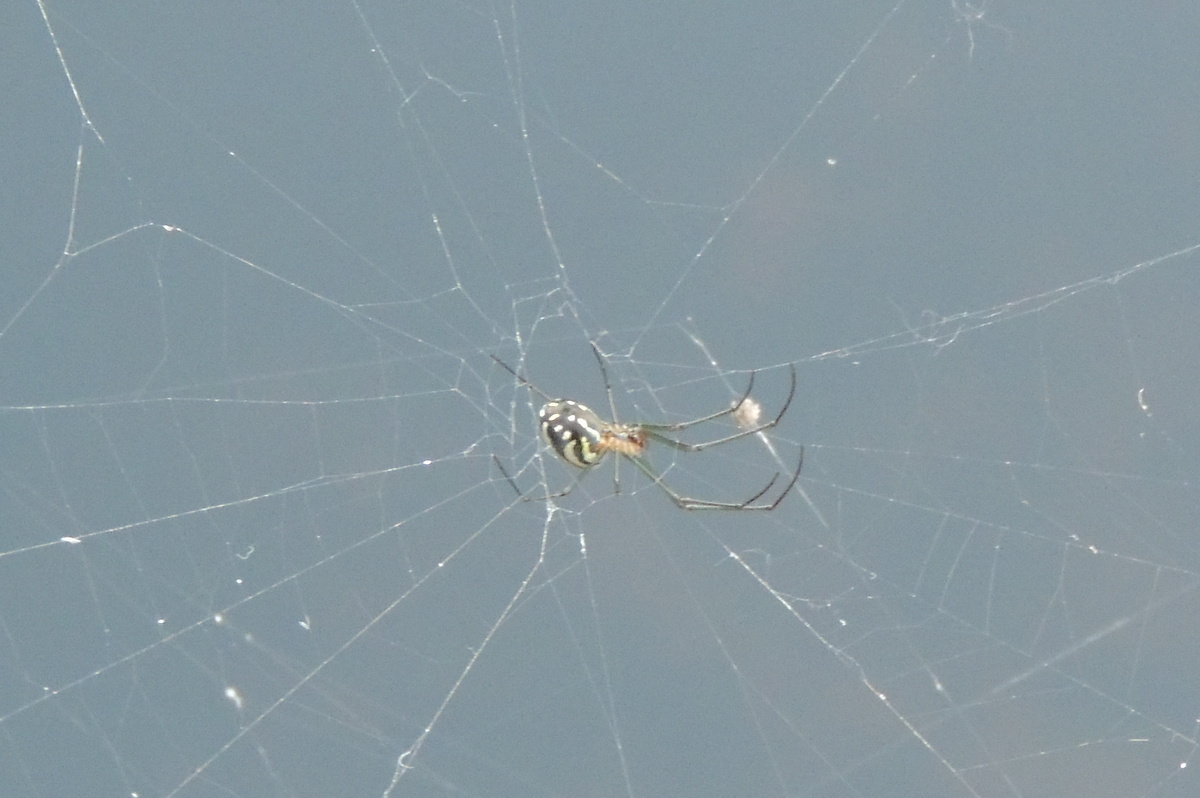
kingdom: Animalia
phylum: Arthropoda
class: Arachnida
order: Araneae
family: Tetragnathidae
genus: Leucauge
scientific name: Leucauge argyra
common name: Longjawed orb weavers
